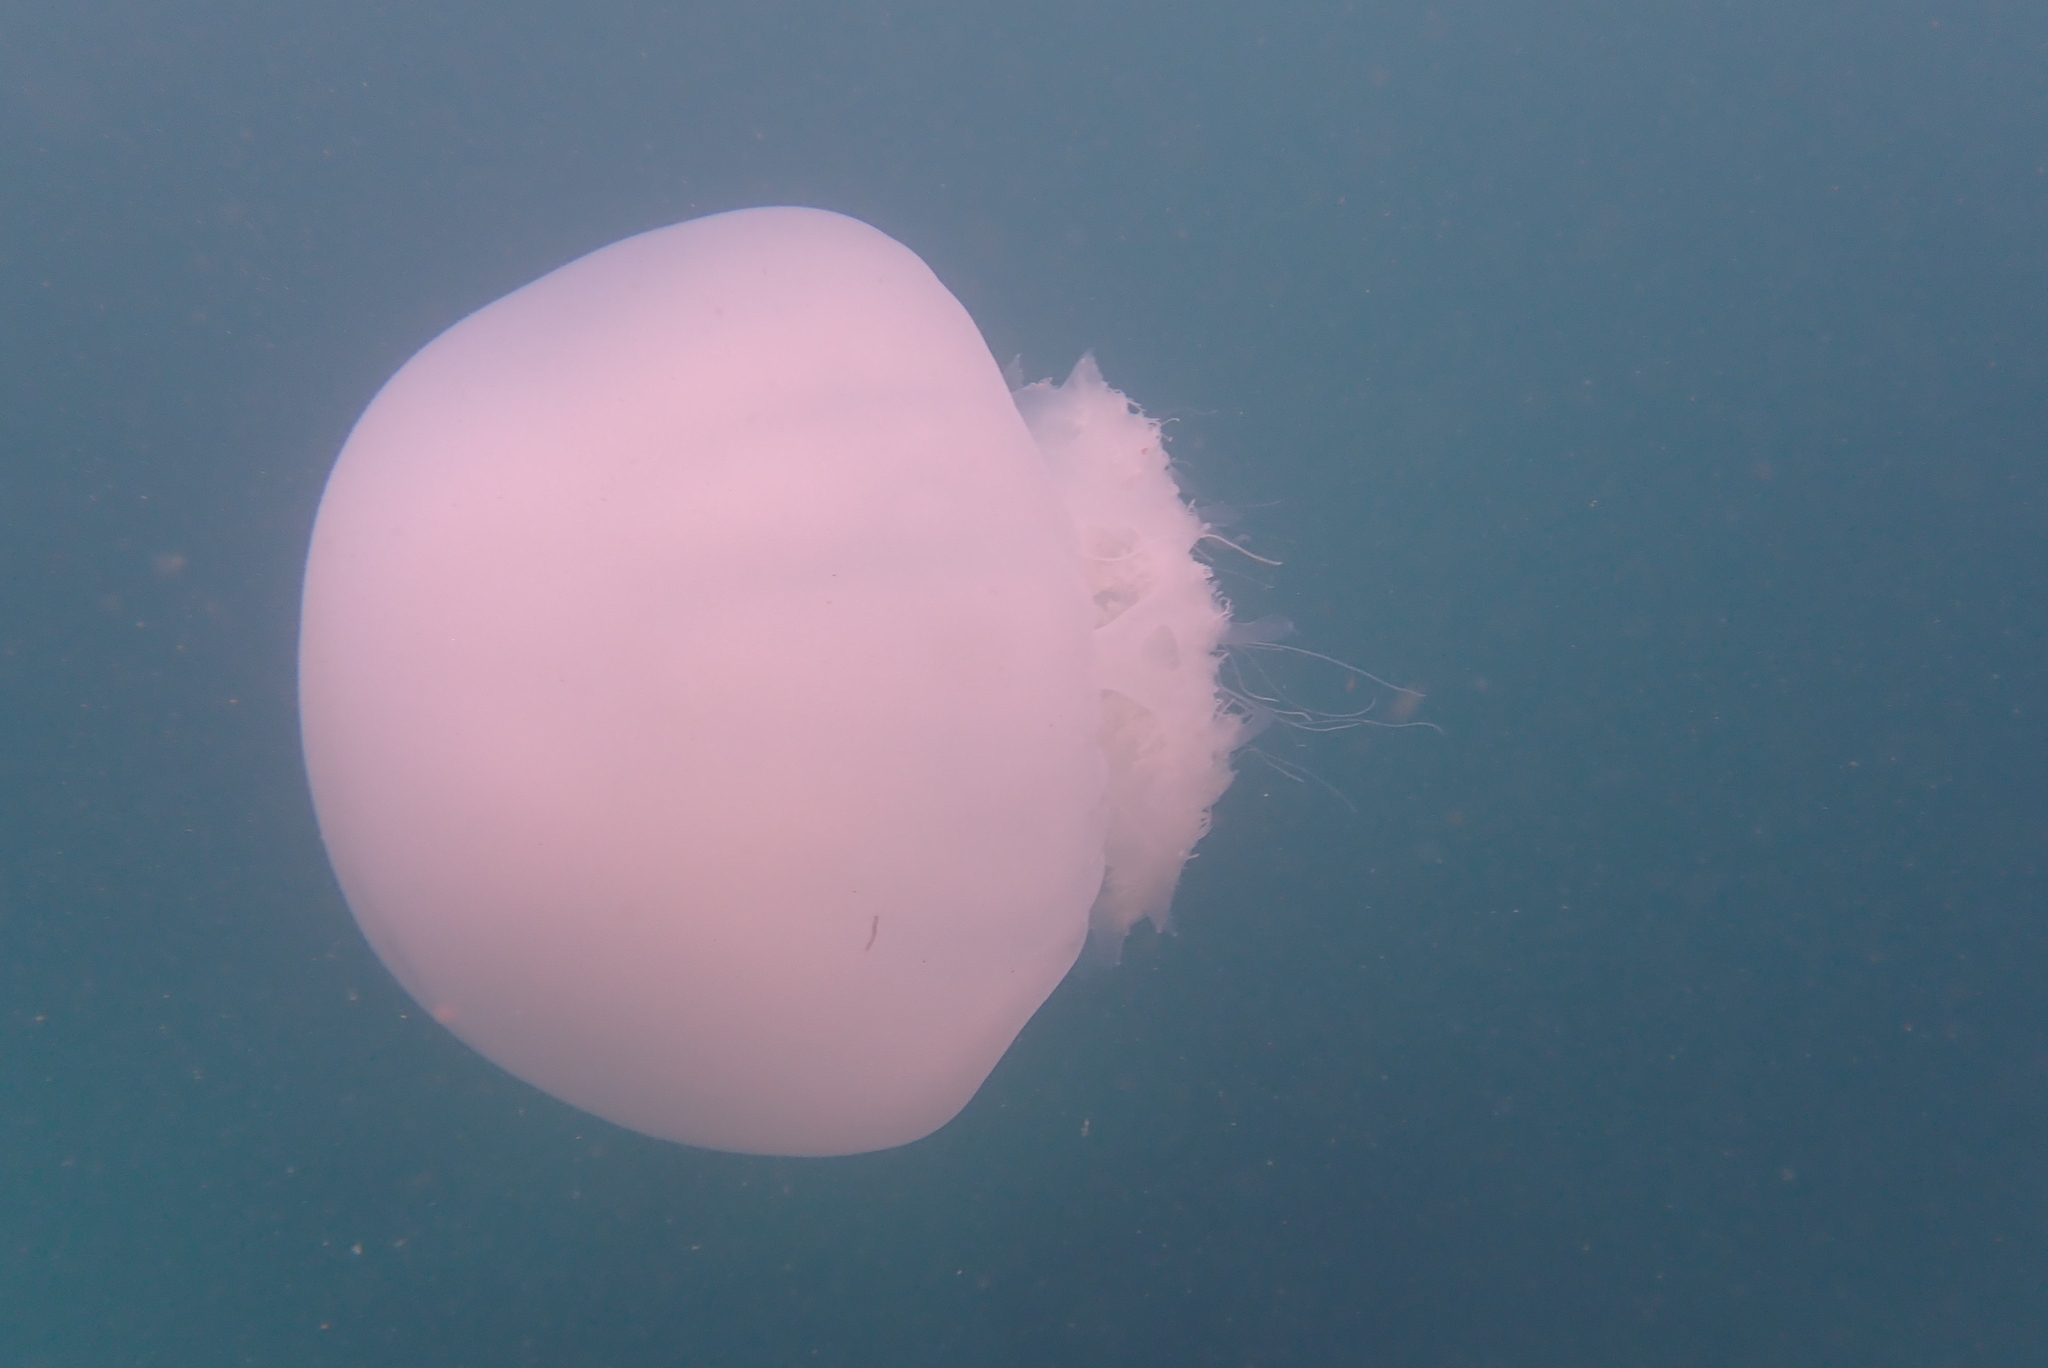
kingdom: Animalia
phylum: Cnidaria
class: Scyphozoa
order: Rhizostomeae
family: Rhizostomatidae
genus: Rhopilema
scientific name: Rhopilema nomadica
